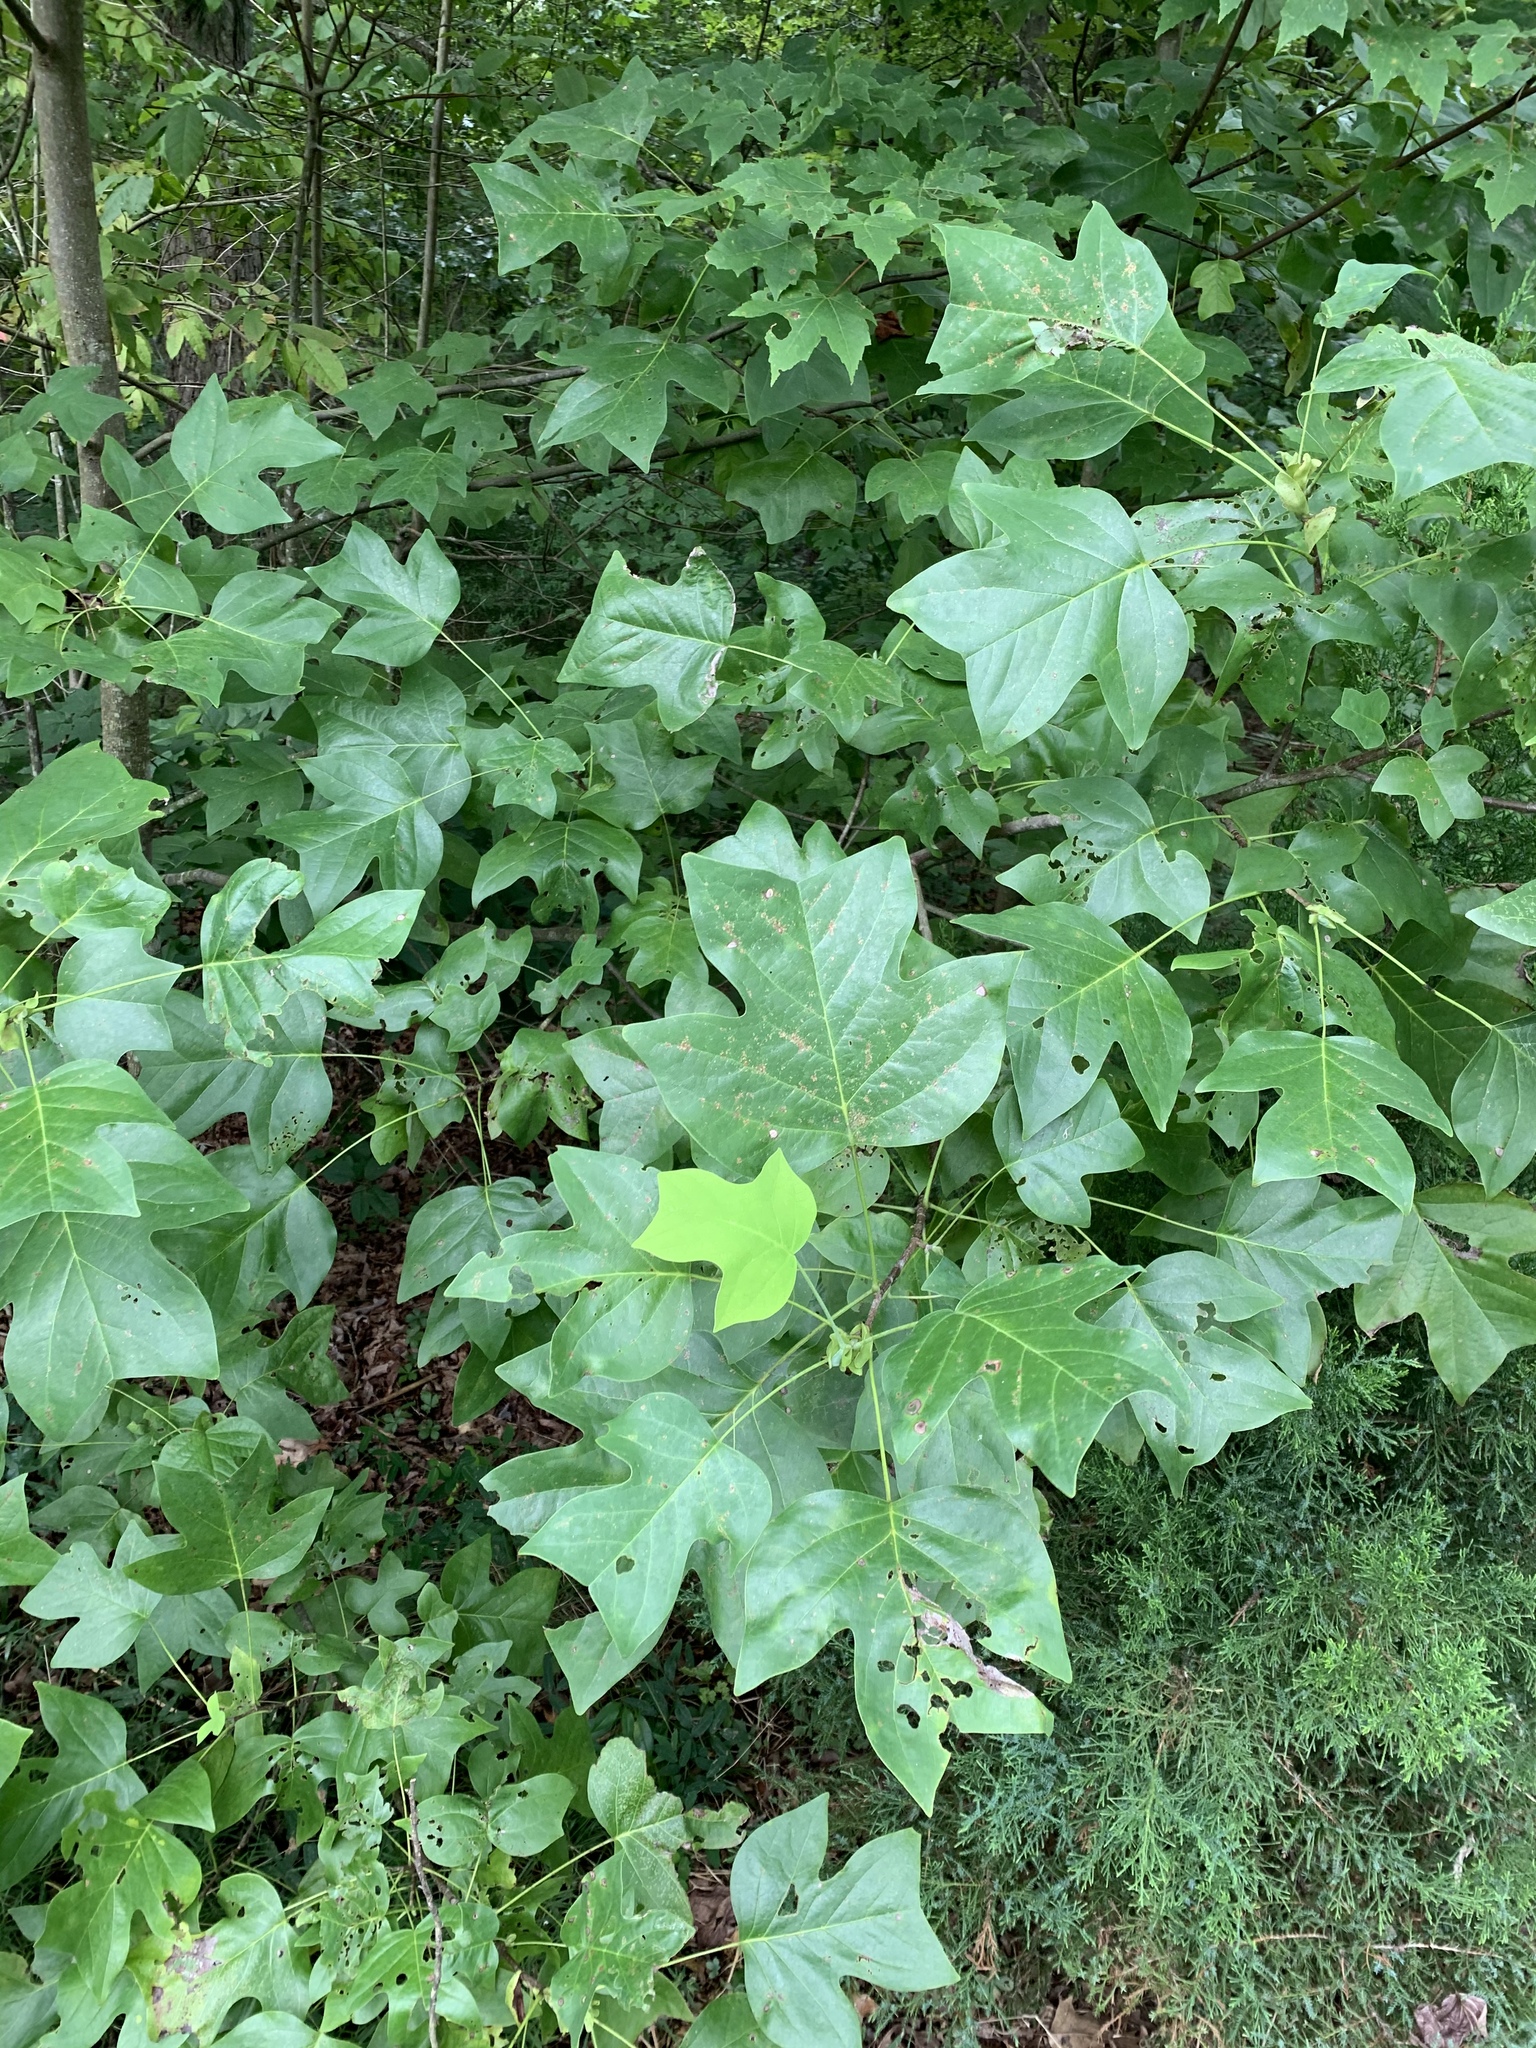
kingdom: Plantae
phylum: Tracheophyta
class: Magnoliopsida
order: Magnoliales
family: Magnoliaceae
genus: Liriodendron
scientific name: Liriodendron tulipifera
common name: Tulip tree
